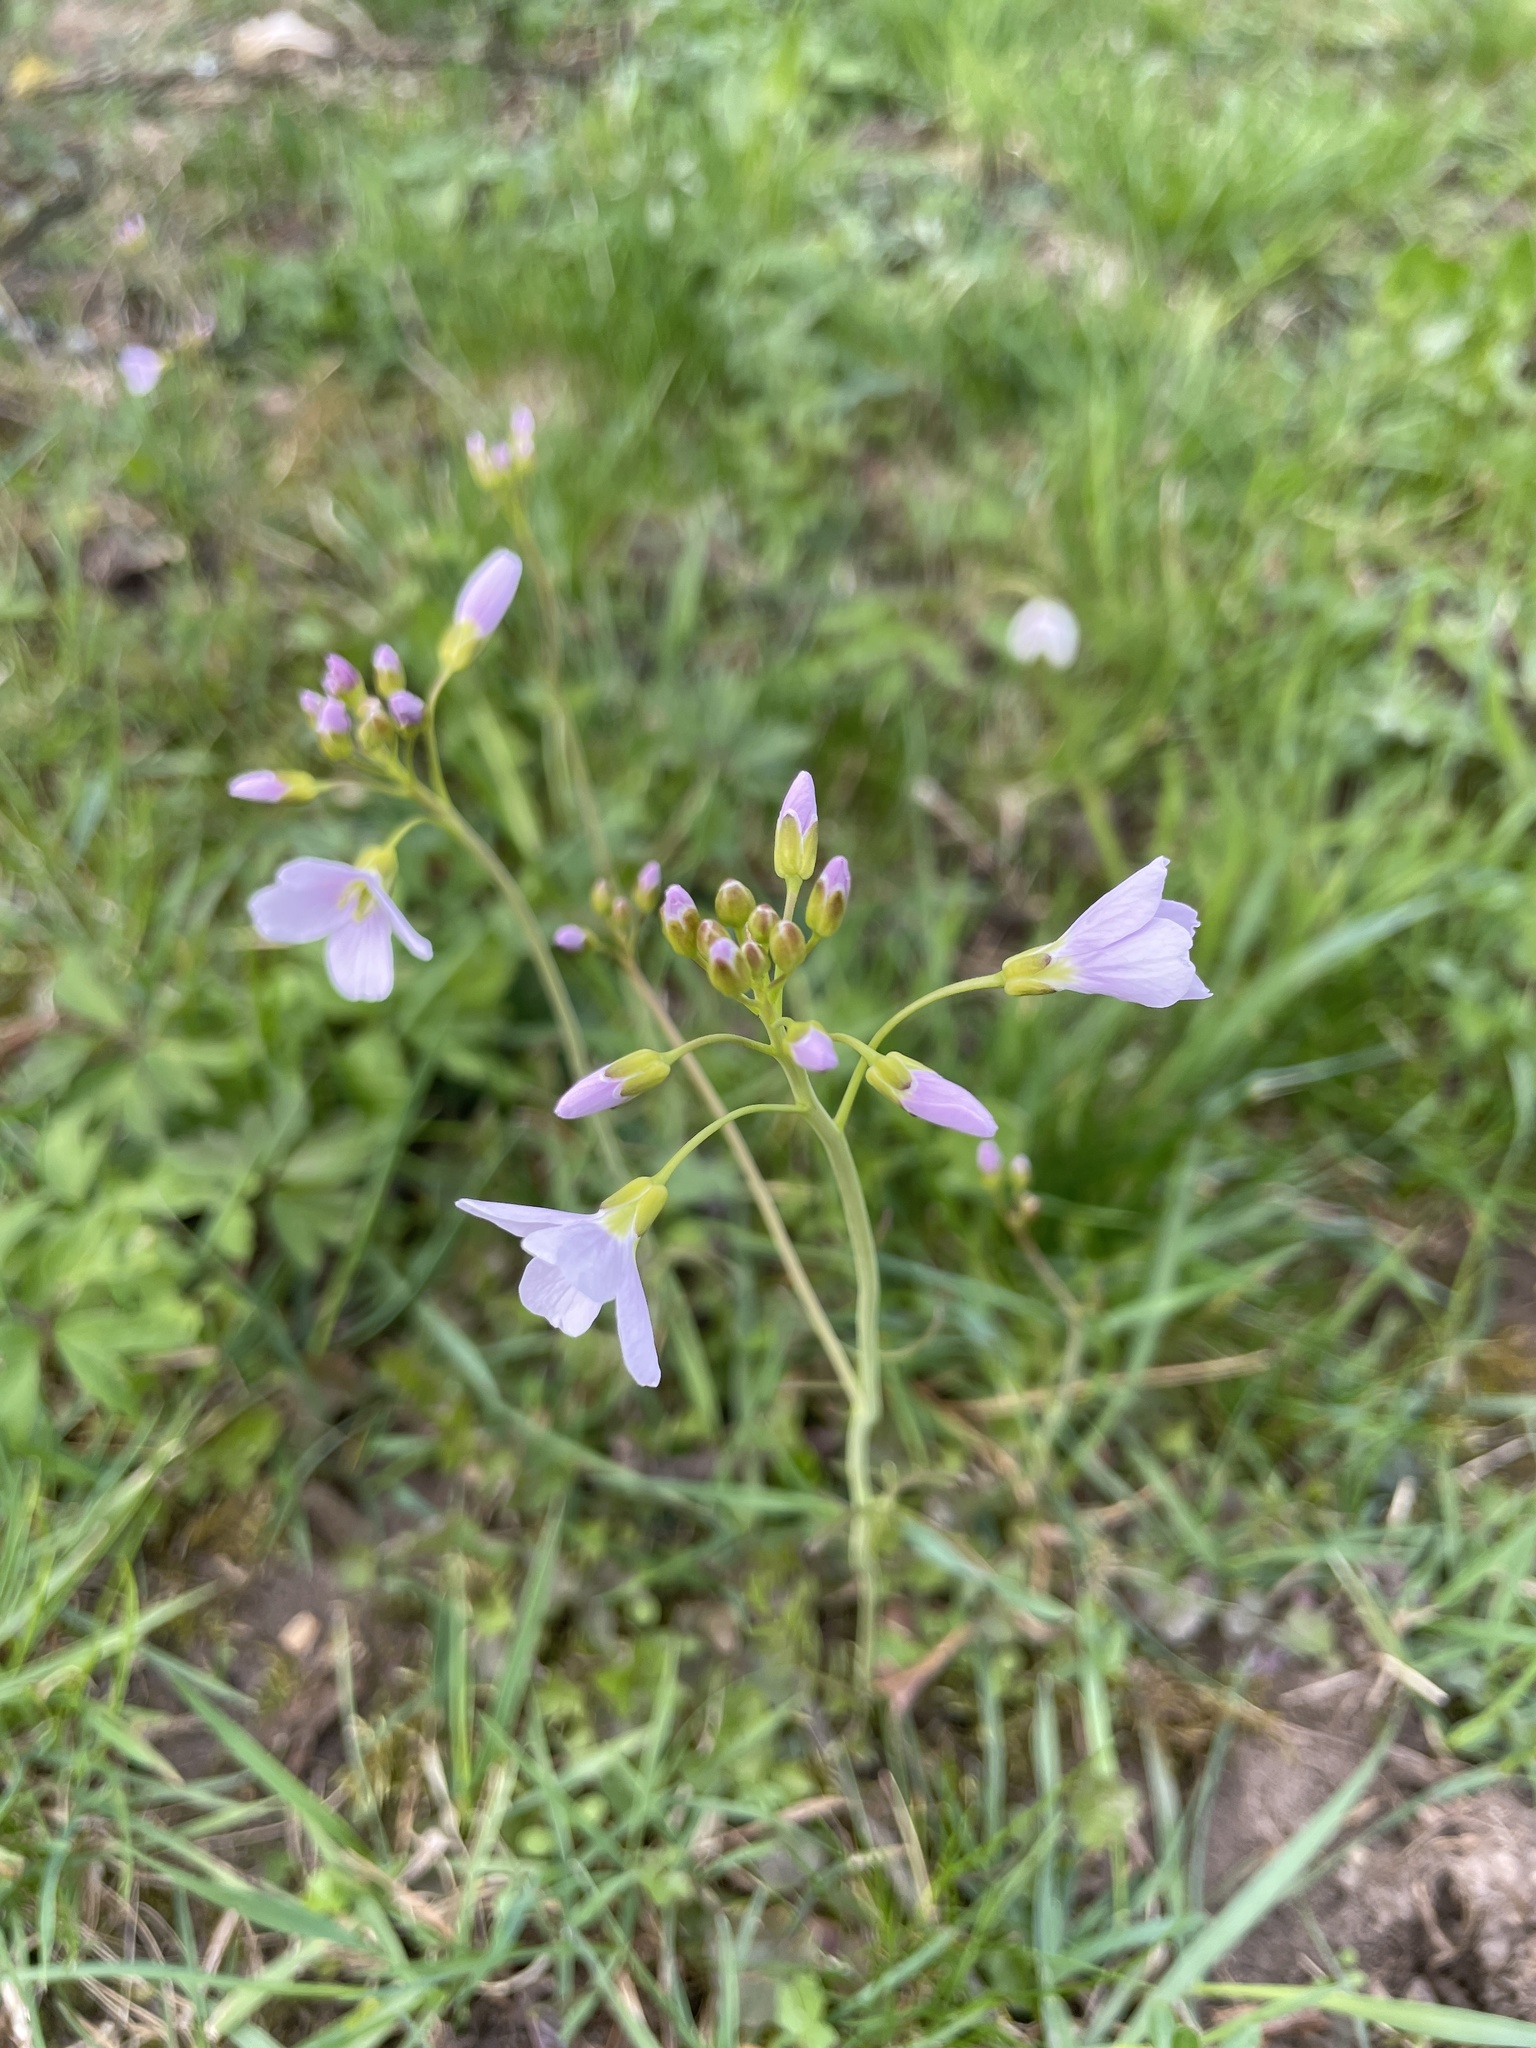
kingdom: Plantae
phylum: Tracheophyta
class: Magnoliopsida
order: Brassicales
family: Brassicaceae
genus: Cardamine
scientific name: Cardamine pratensis
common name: Cuckoo flower
